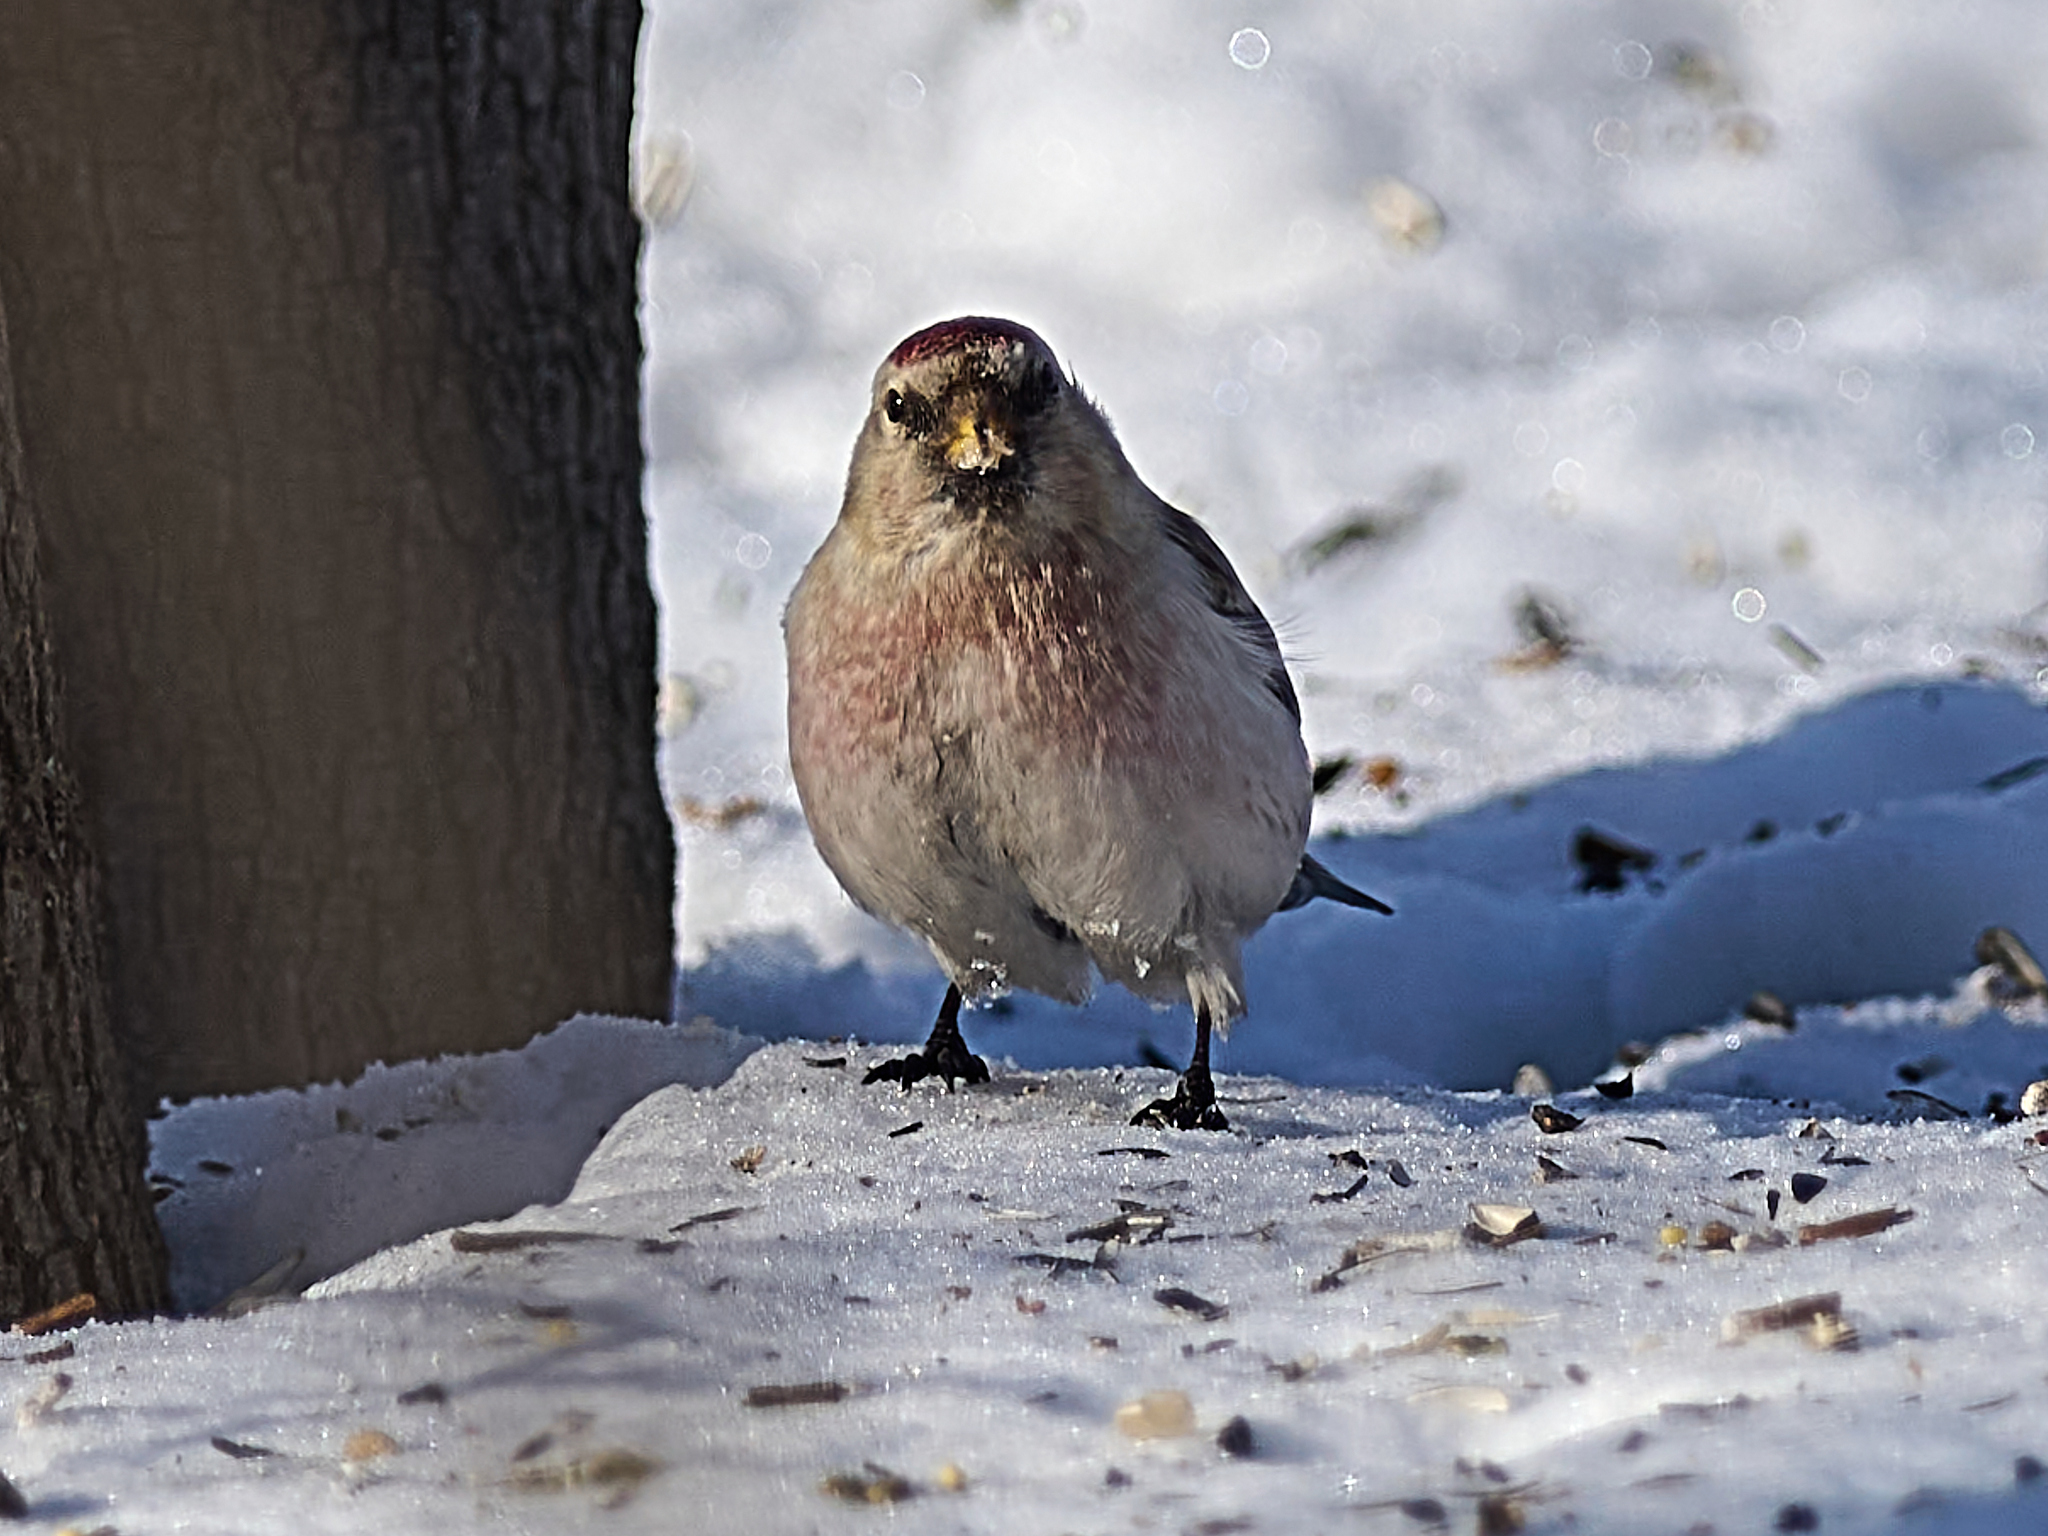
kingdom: Animalia
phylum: Chordata
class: Aves
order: Passeriformes
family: Fringillidae
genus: Acanthis
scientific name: Acanthis hornemanni
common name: Arctic redpoll
